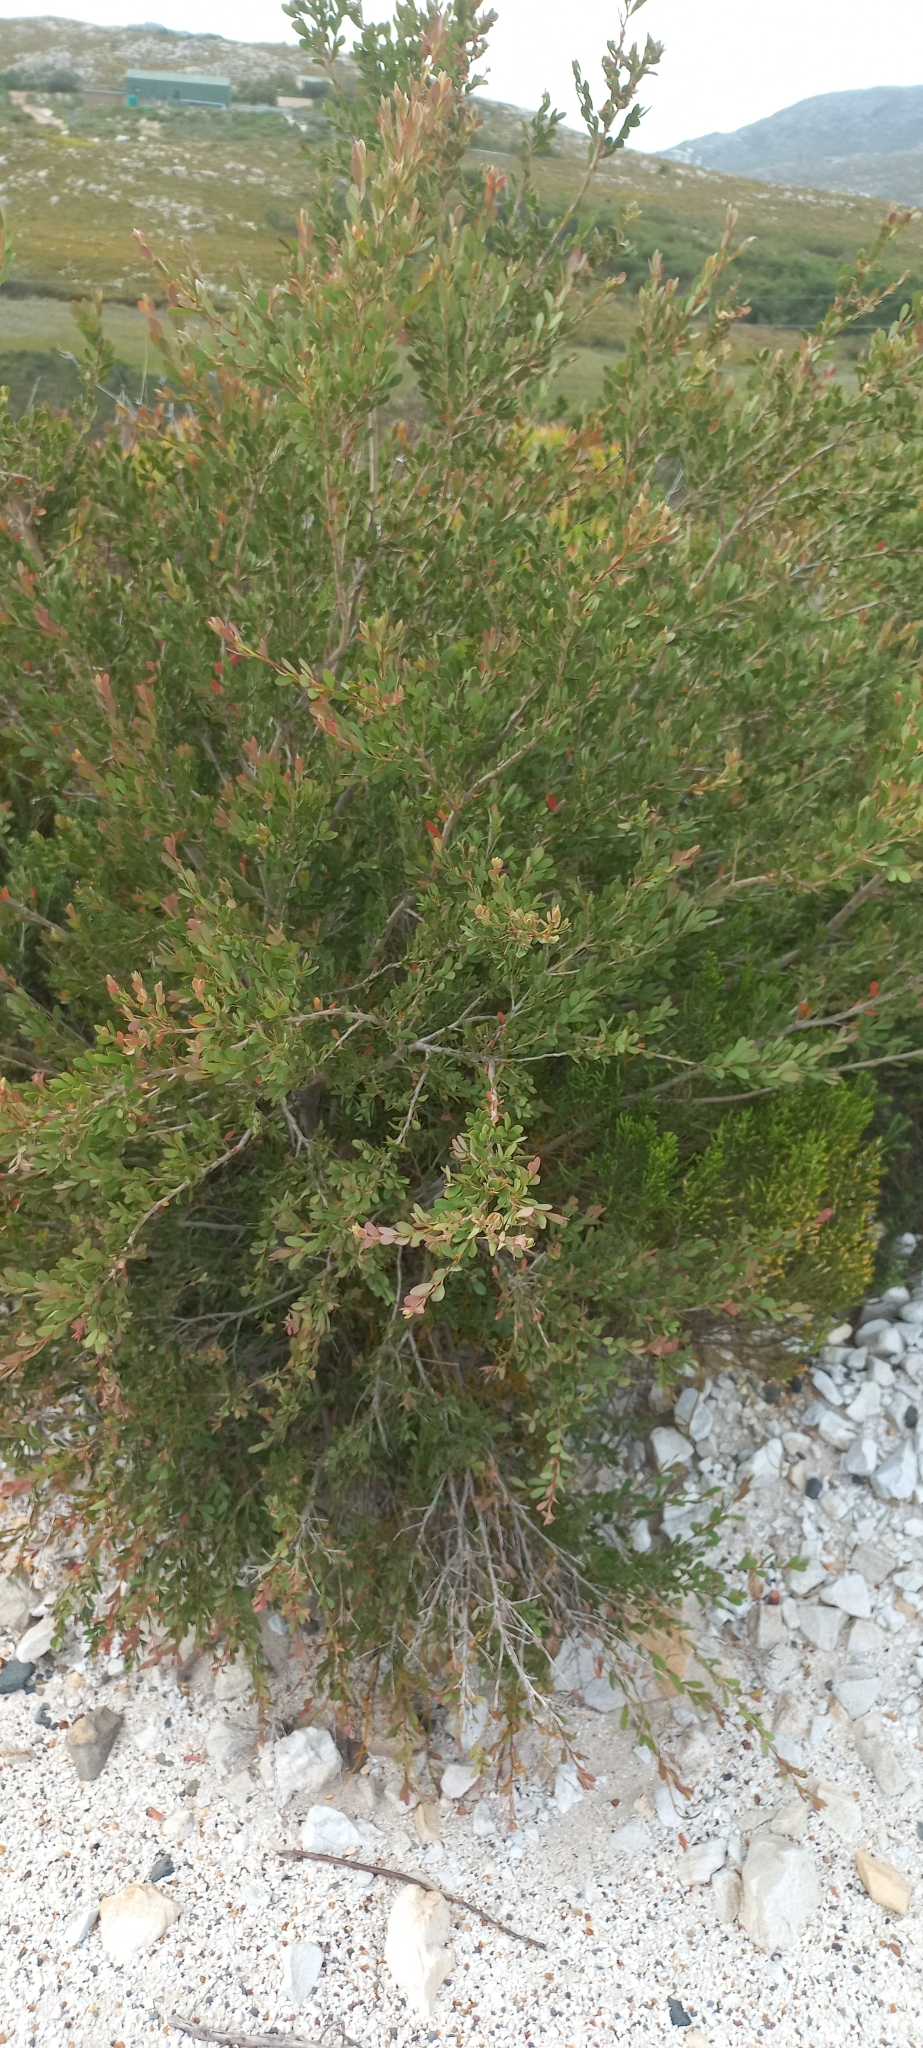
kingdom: Plantae
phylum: Tracheophyta
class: Magnoliopsida
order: Myrtales
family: Myrtaceae
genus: Leptospermum
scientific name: Leptospermum laevigatum
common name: Australian teatree
